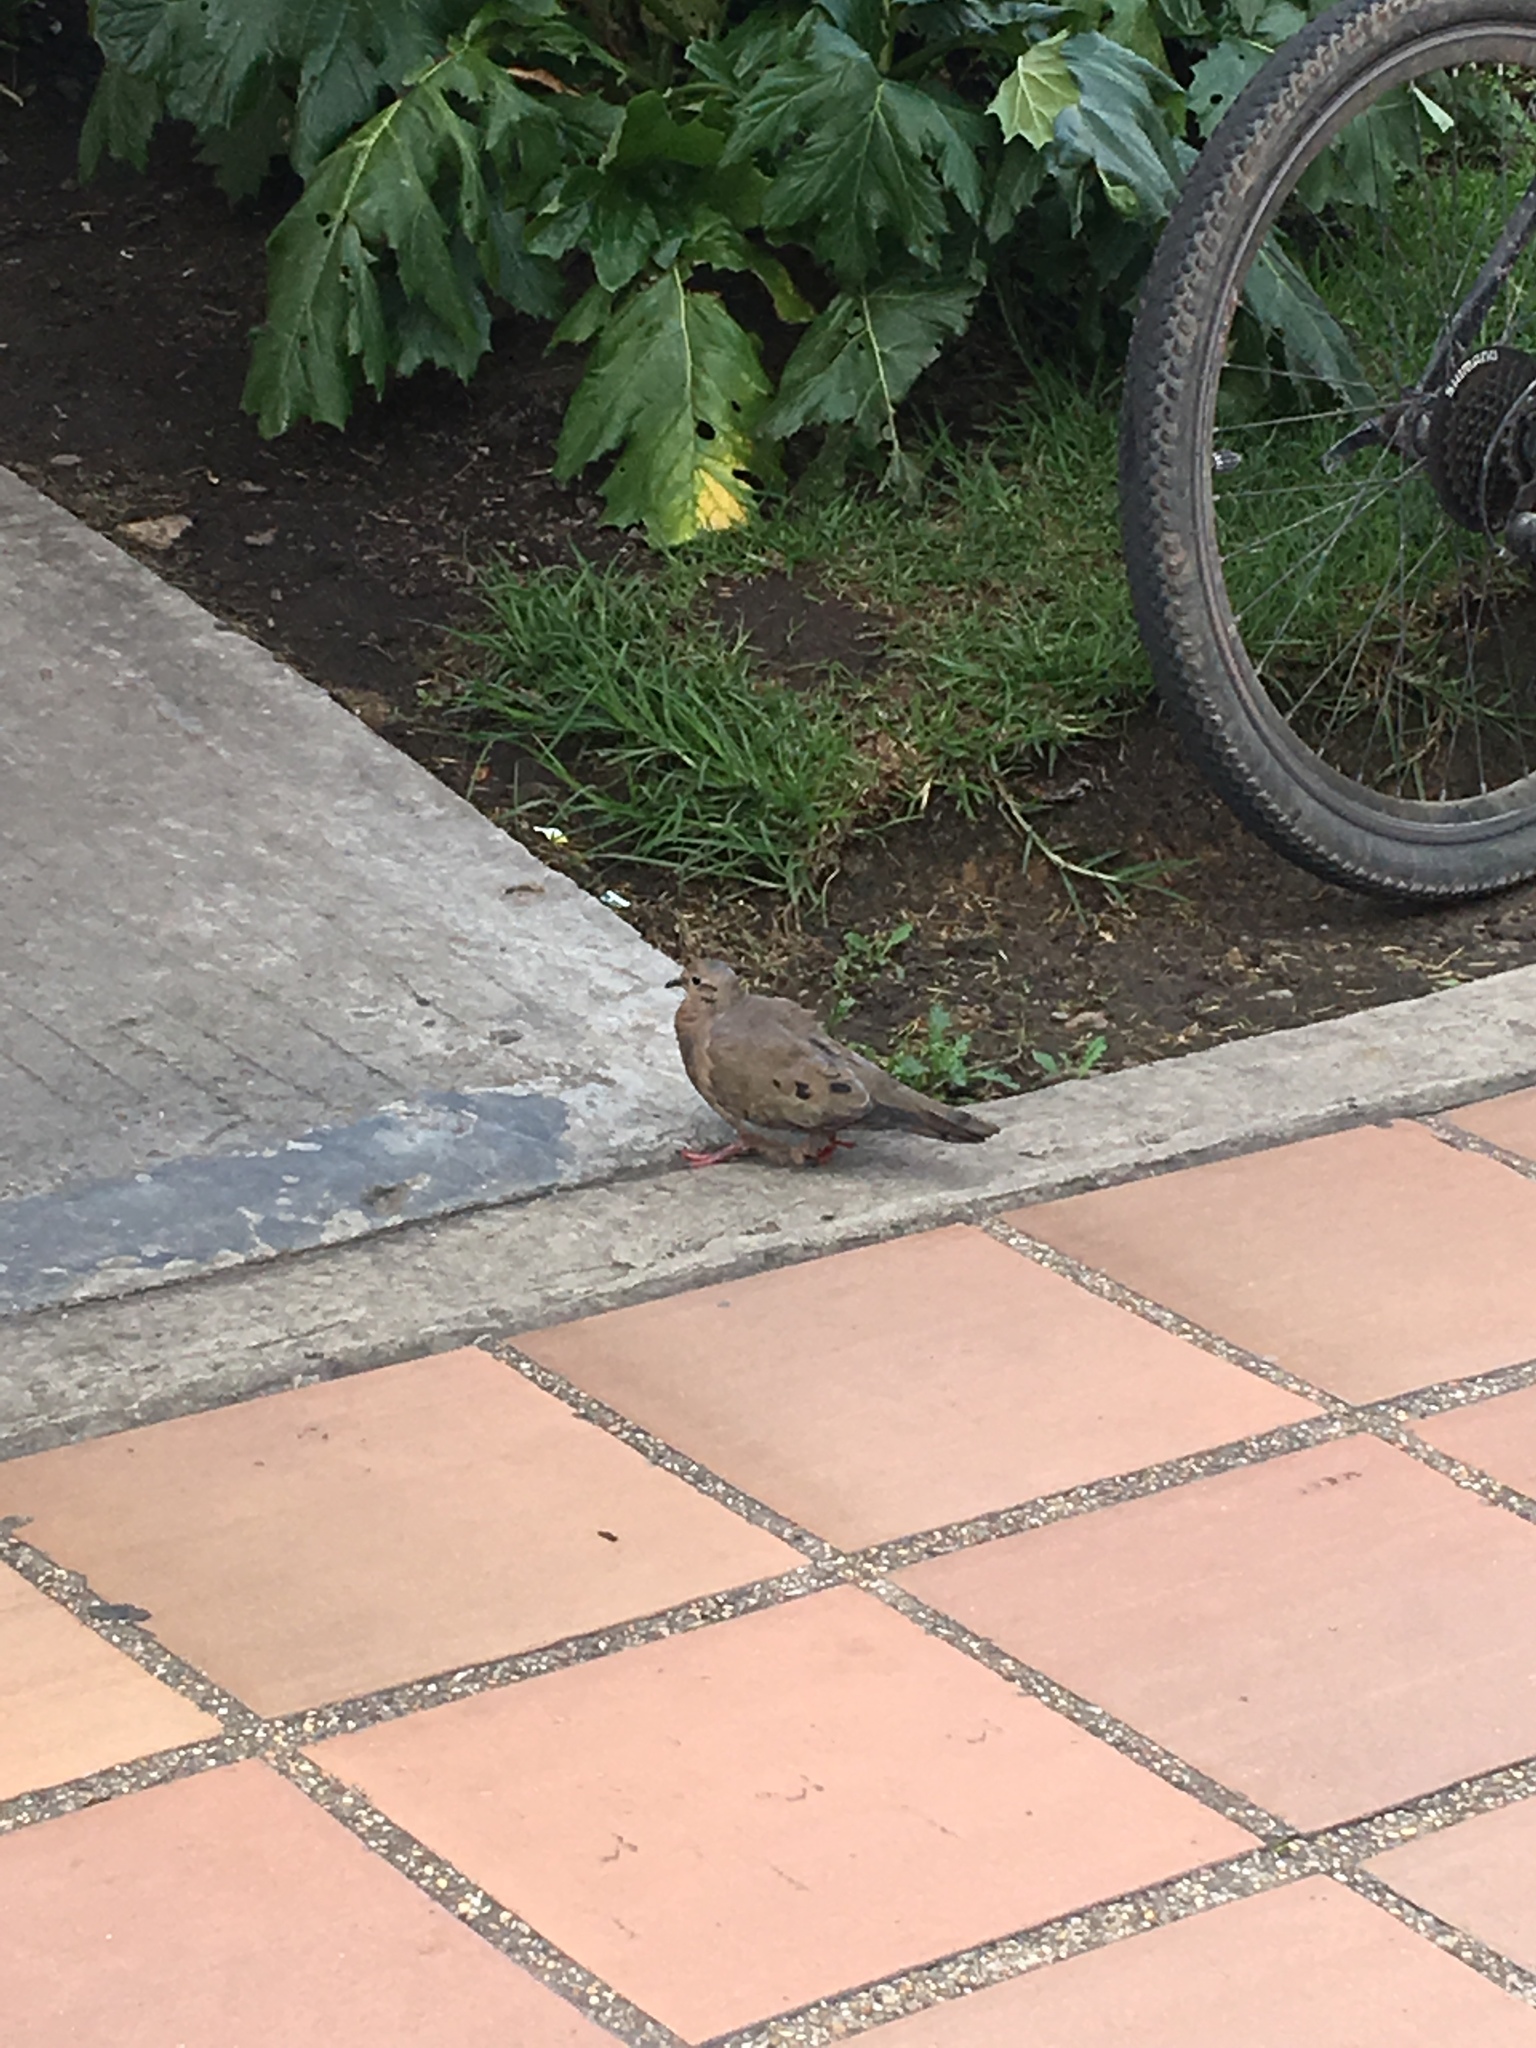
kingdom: Animalia
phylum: Chordata
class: Aves
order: Columbiformes
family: Columbidae
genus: Zenaida
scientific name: Zenaida auriculata
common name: Eared dove
